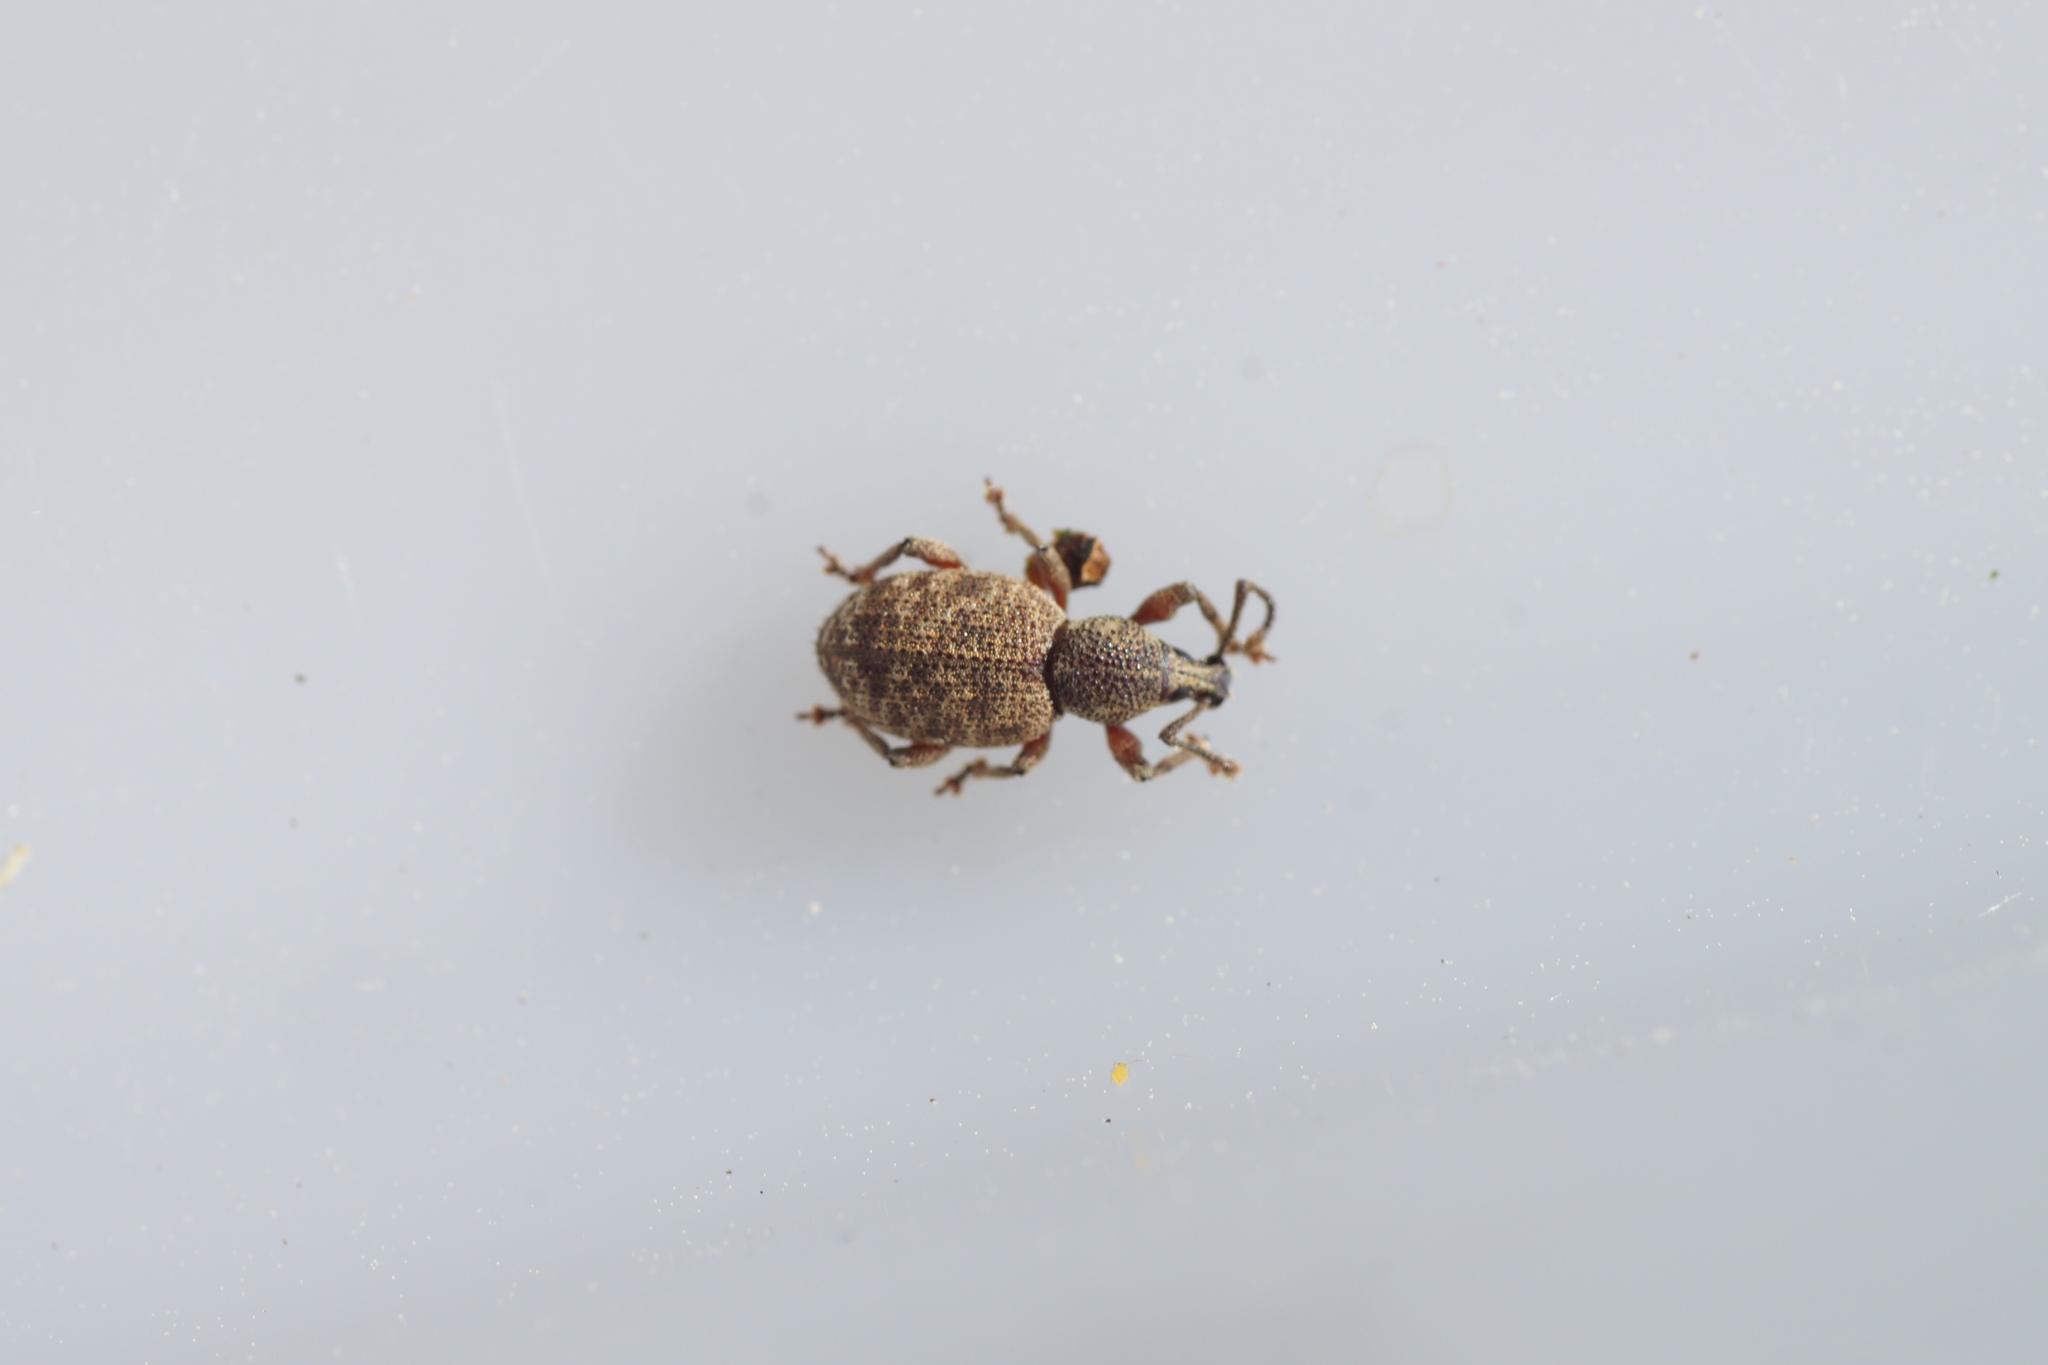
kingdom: Animalia
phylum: Arthropoda
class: Insecta
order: Coleoptera
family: Curculionidae
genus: Otiorhynchus
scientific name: Otiorhynchus singularis
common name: Clay-coloured weevil
